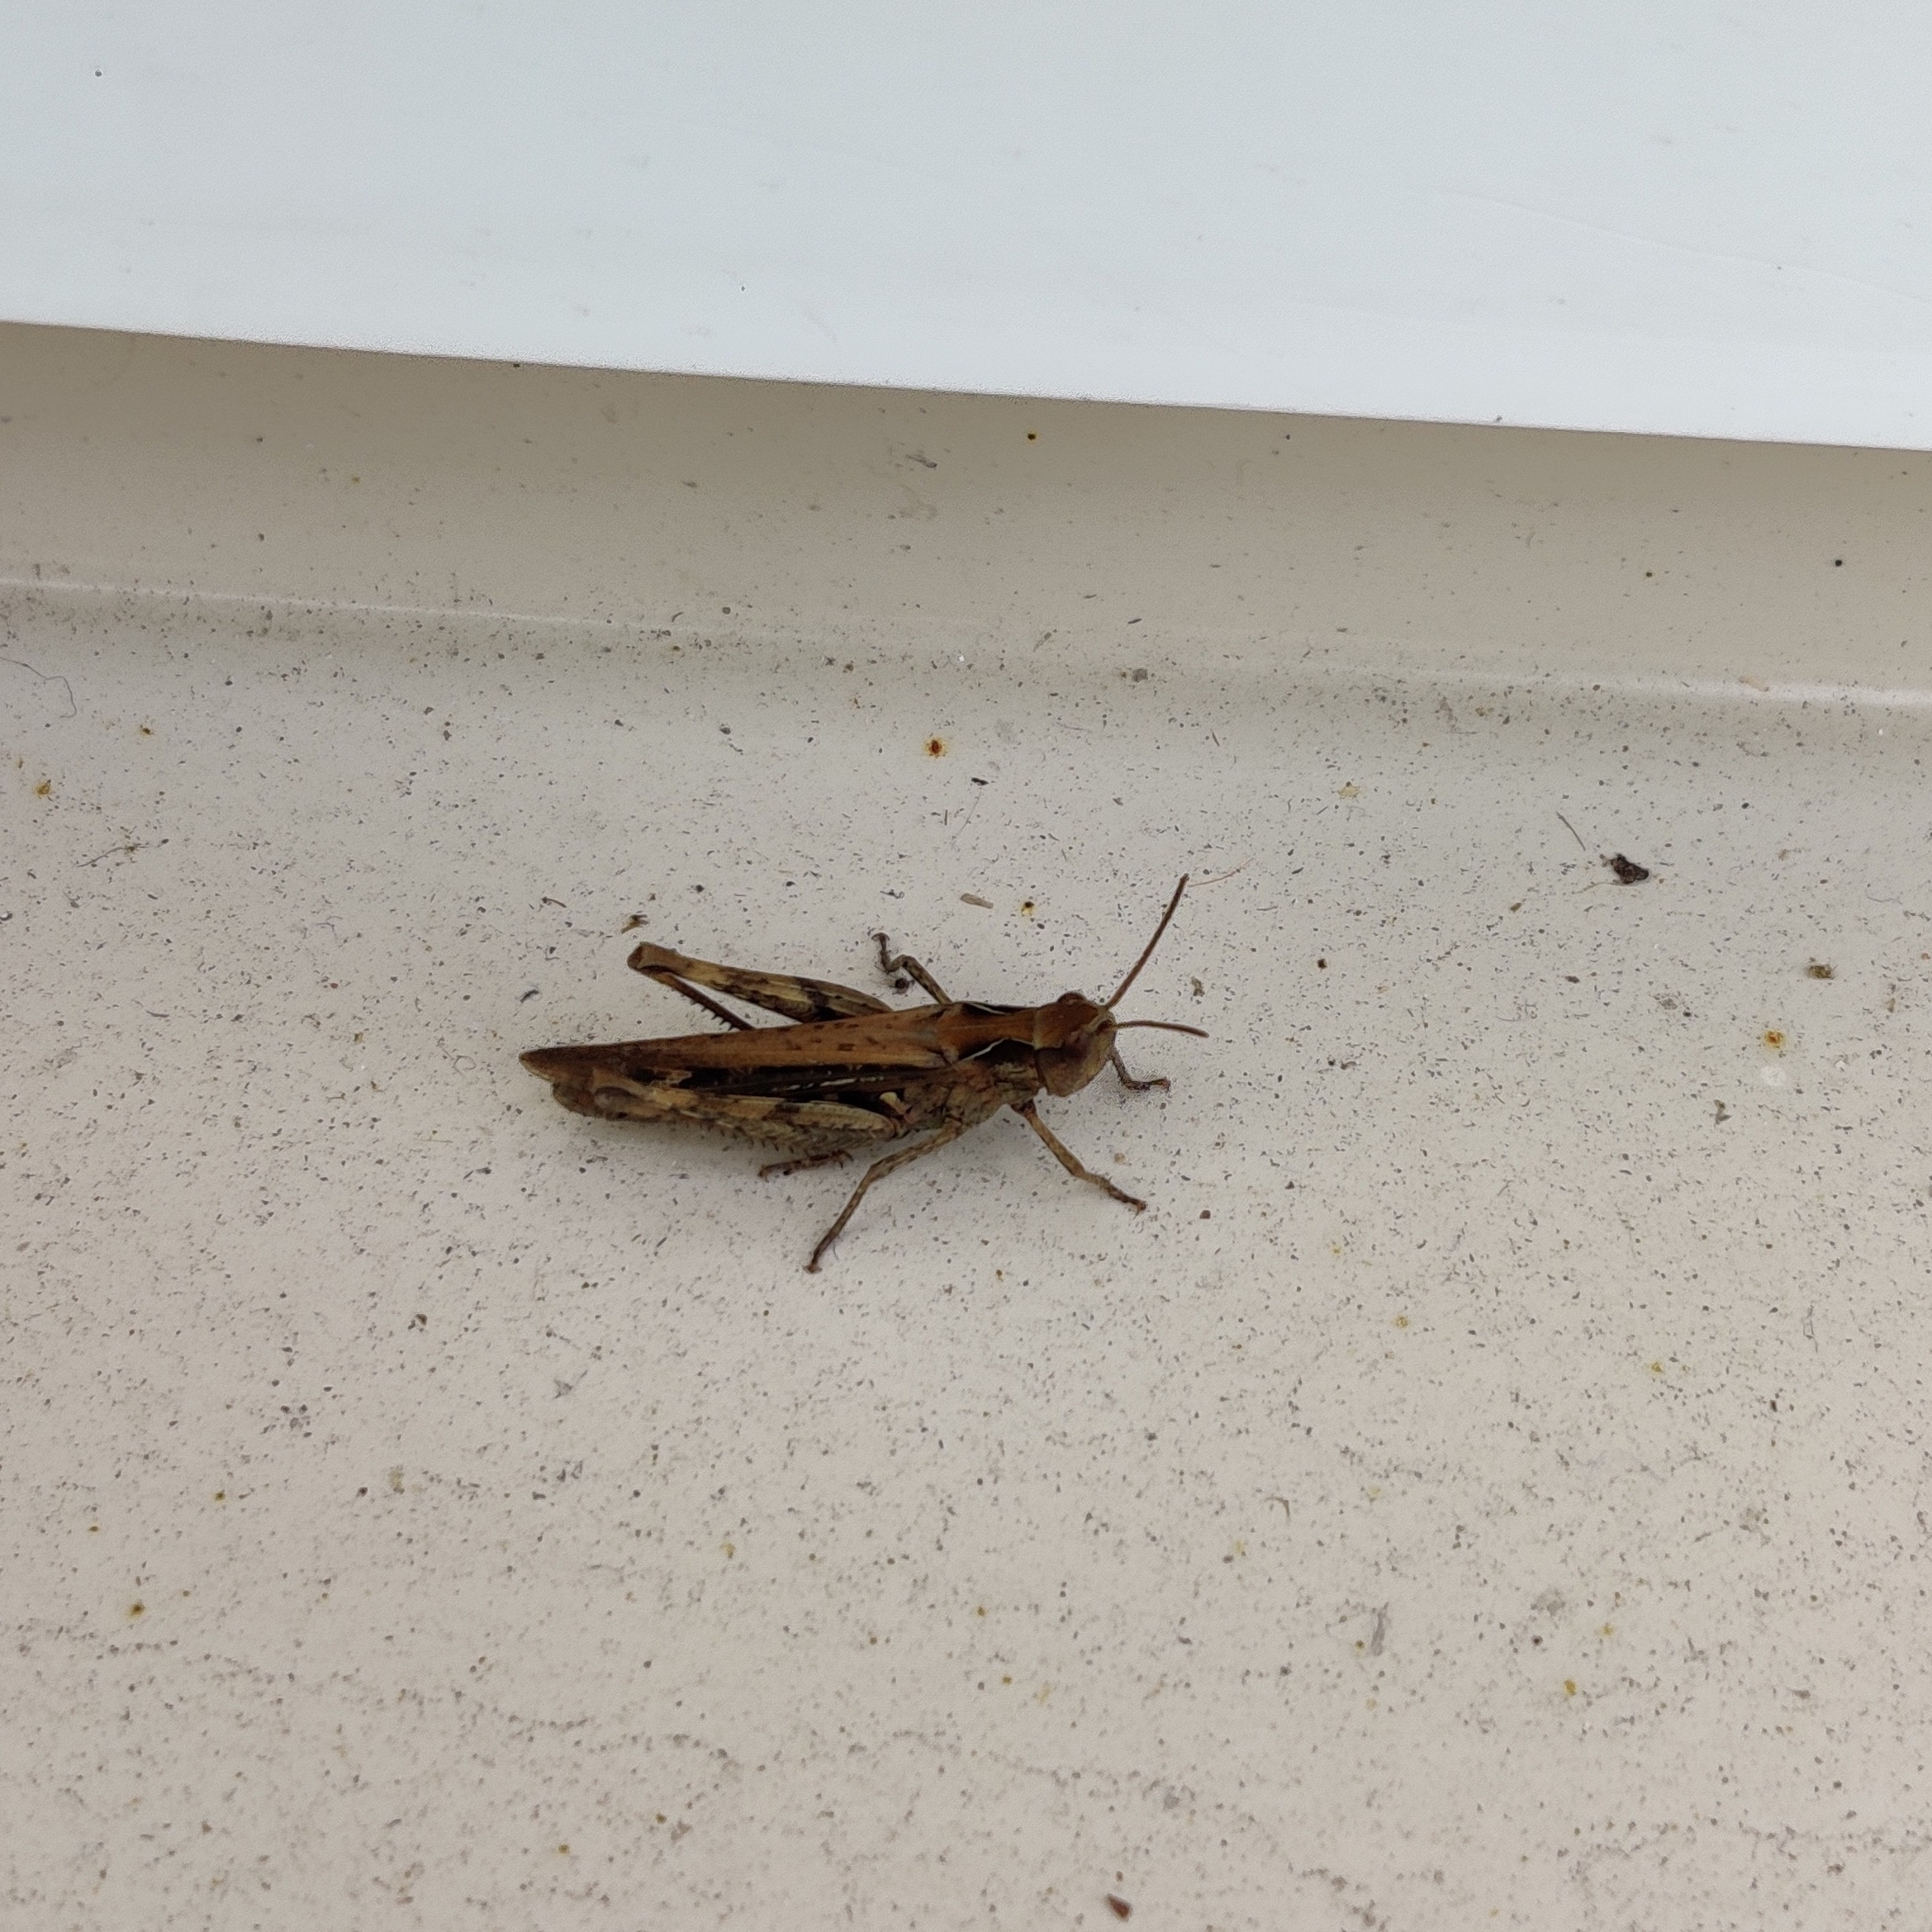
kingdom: Animalia
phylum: Arthropoda
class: Insecta
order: Orthoptera
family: Acrididae
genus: Glyptobothrus
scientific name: Glyptobothrus
